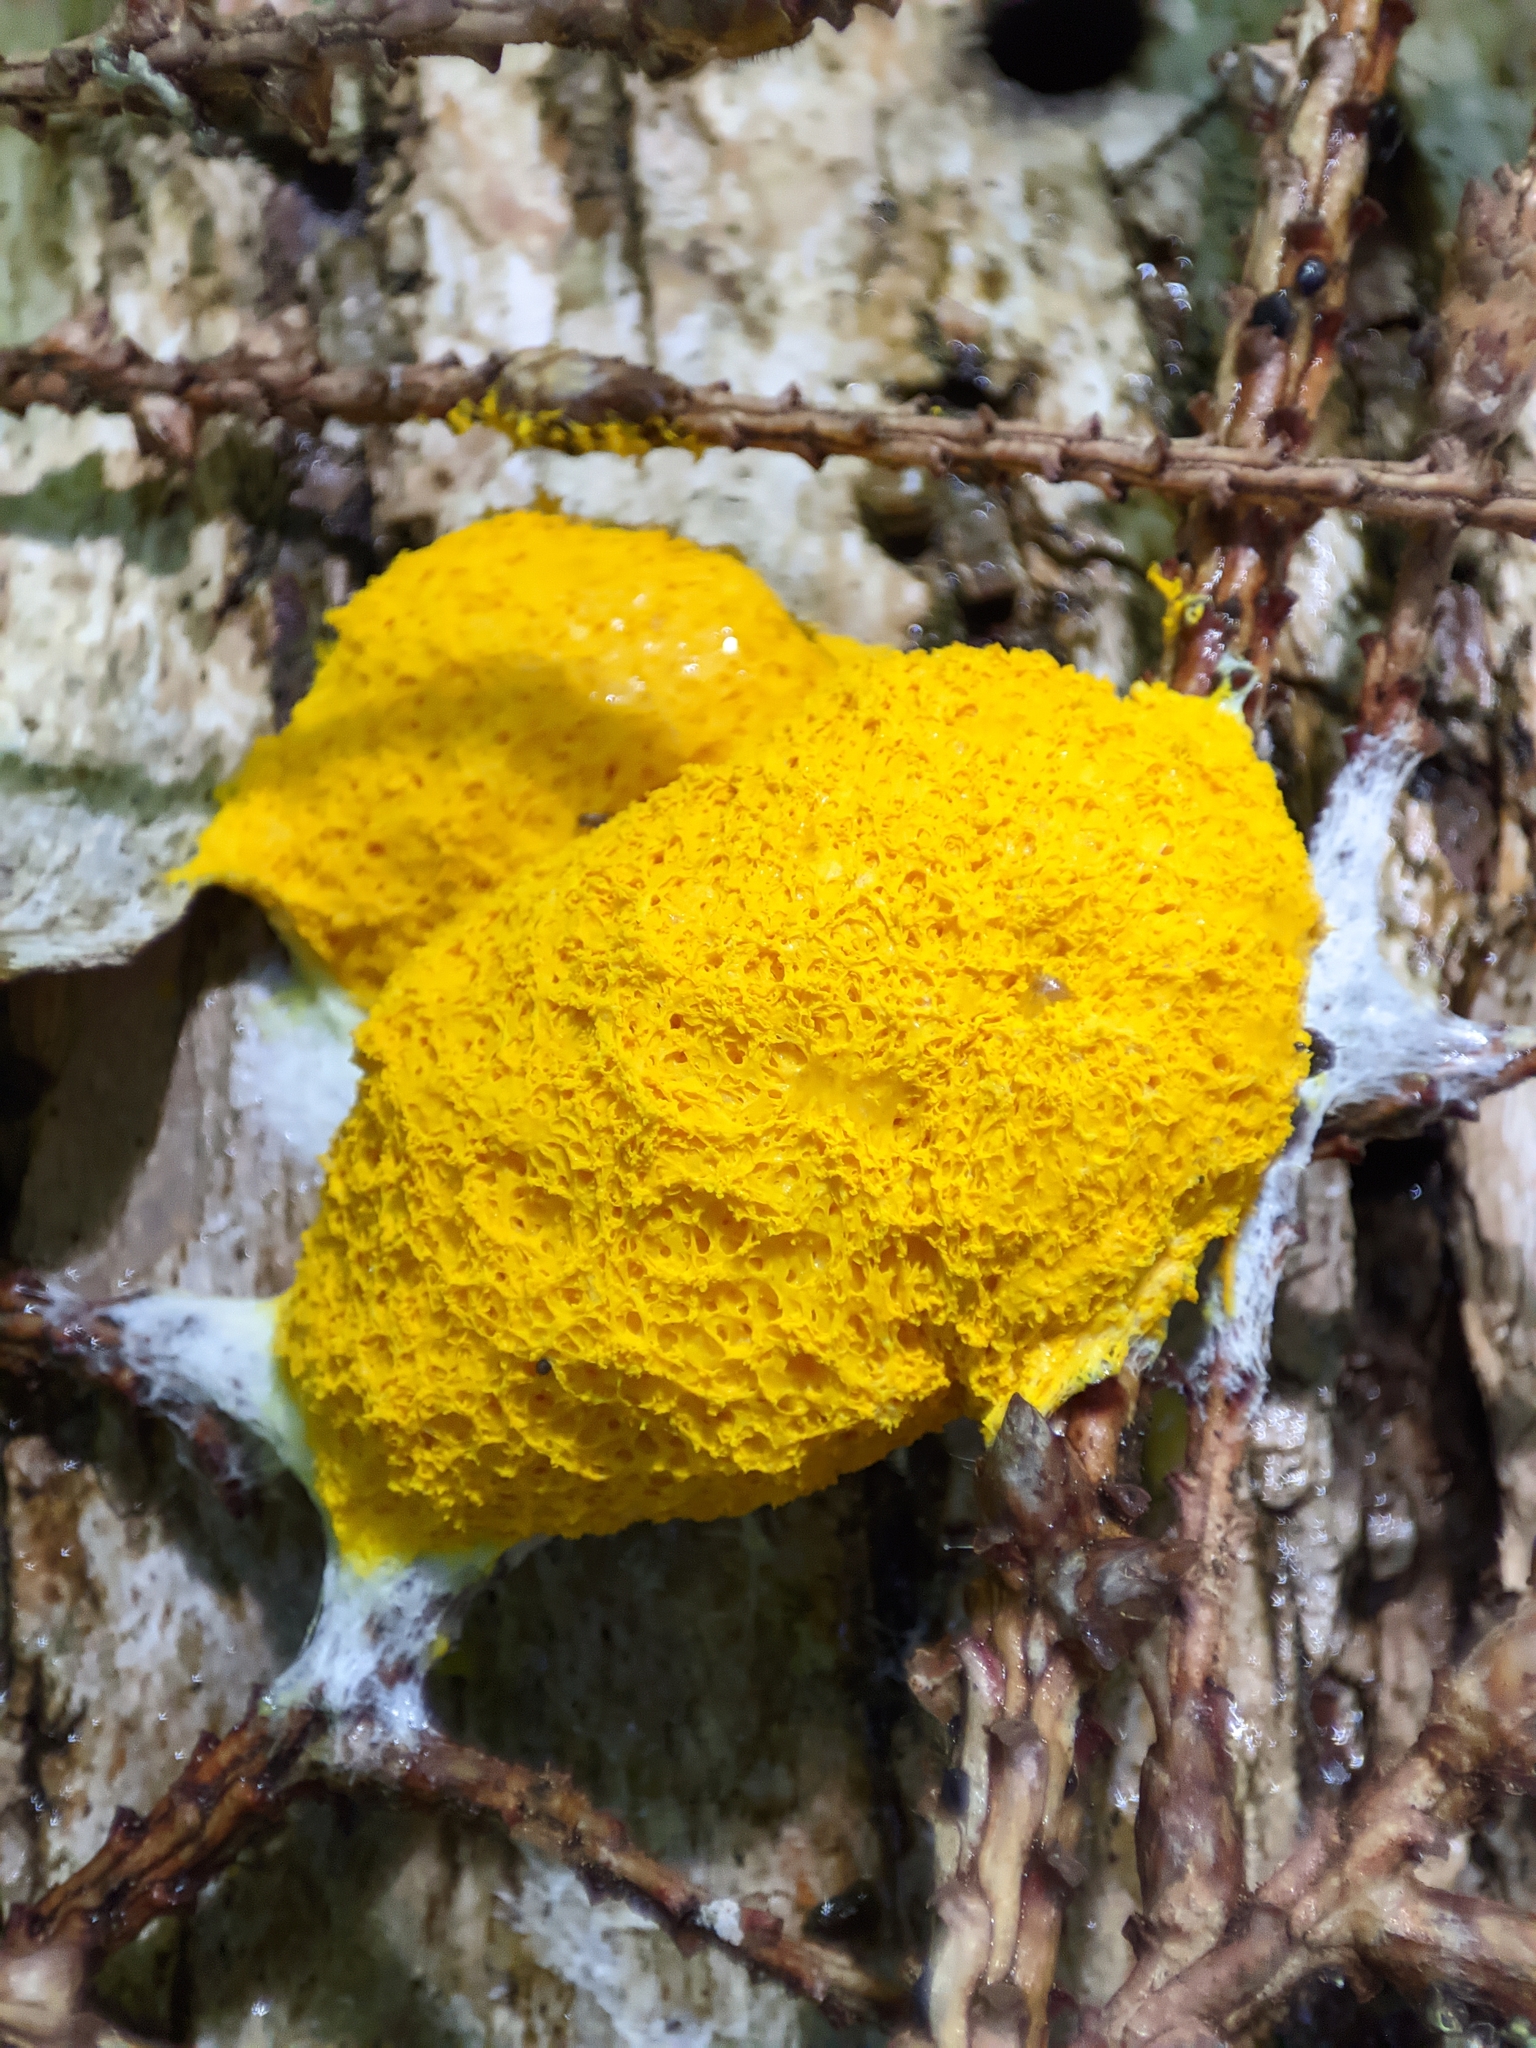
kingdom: Protozoa
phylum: Mycetozoa
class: Myxomycetes
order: Physarales
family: Physaraceae
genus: Fuligo
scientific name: Fuligo septica
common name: Dog vomit slime mold
